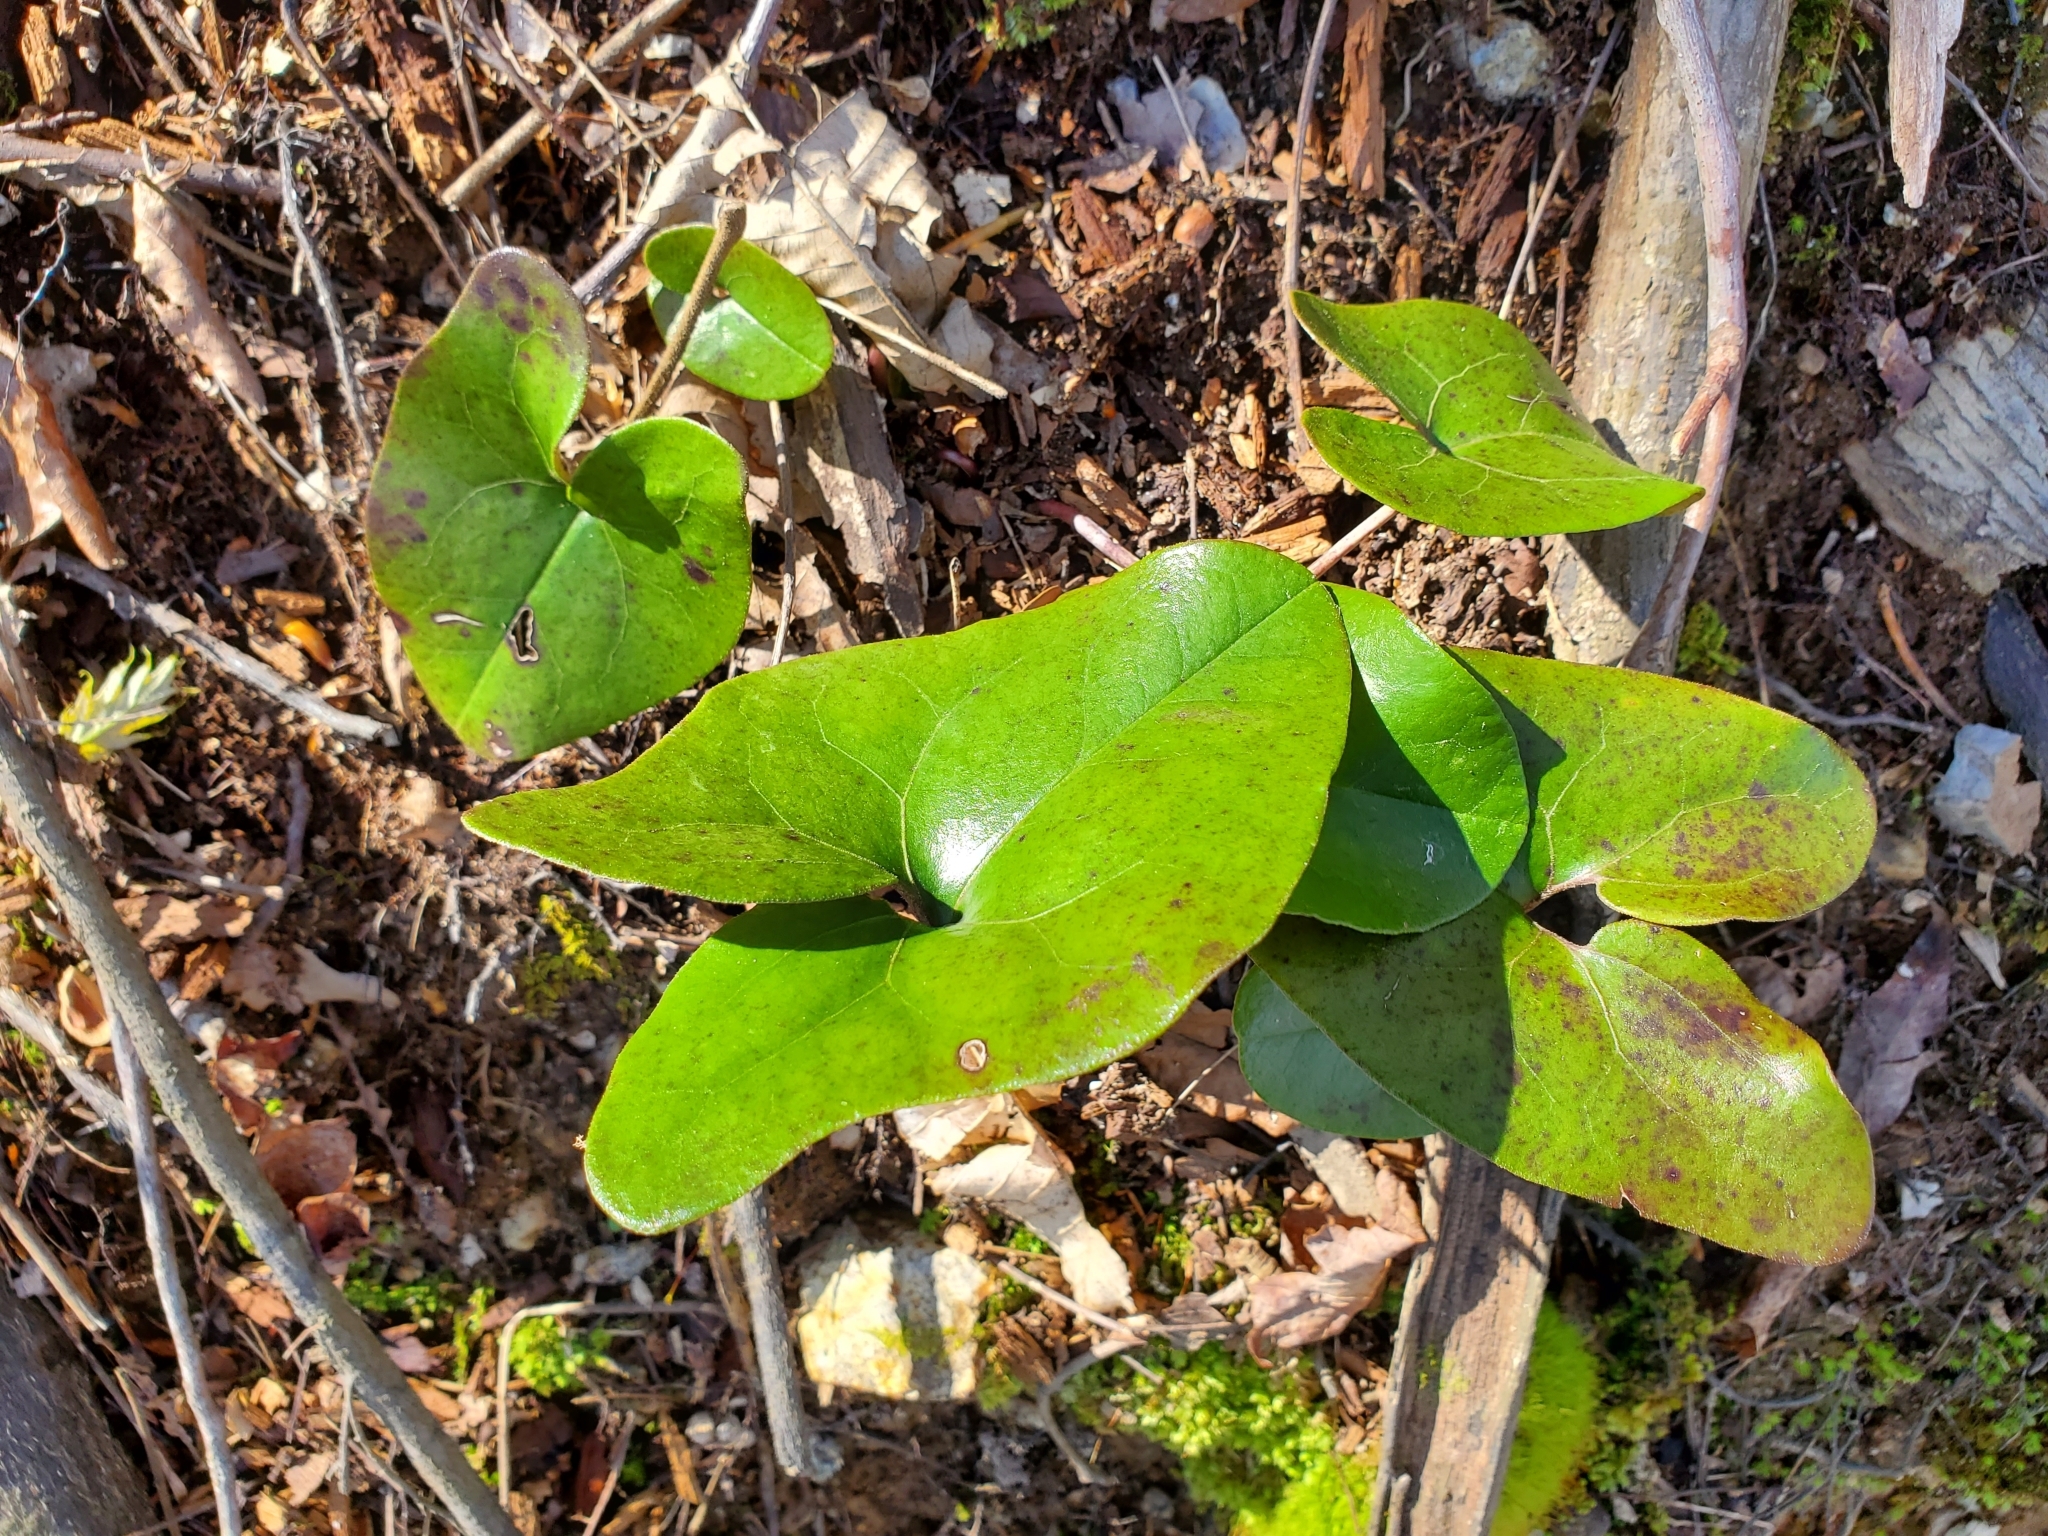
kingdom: Plantae
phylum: Tracheophyta
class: Magnoliopsida
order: Piperales
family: Aristolochiaceae
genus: Hexastylis
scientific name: Hexastylis arifolia
